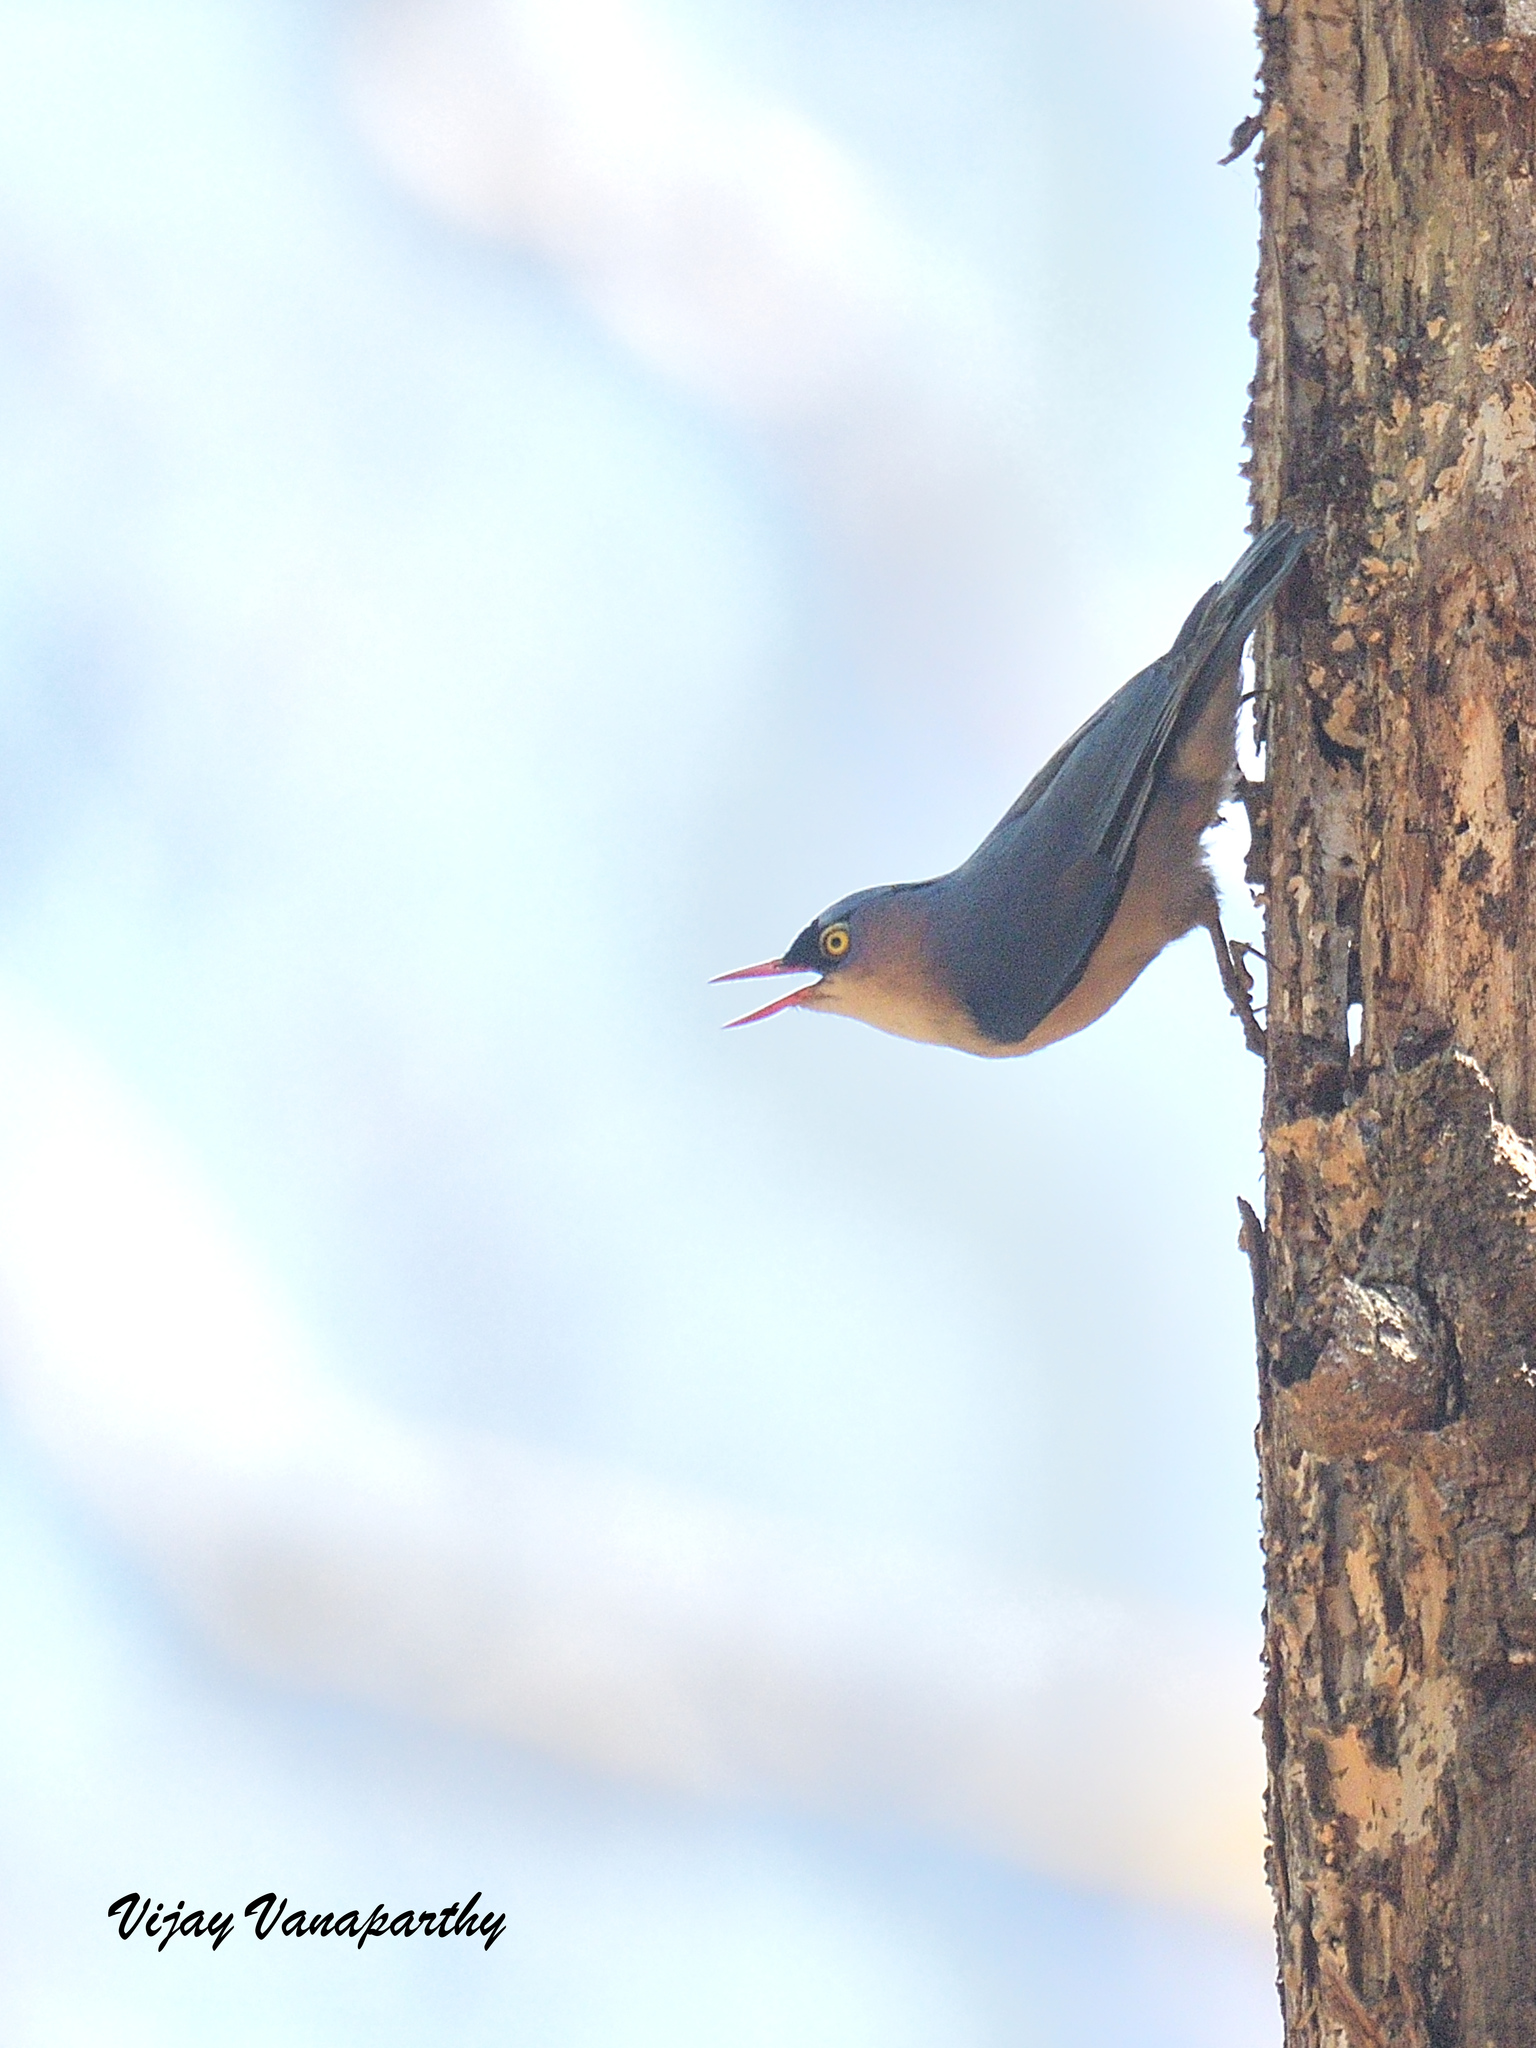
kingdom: Animalia
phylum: Chordata
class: Aves
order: Passeriformes
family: Sittidae
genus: Sitta
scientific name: Sitta frontalis
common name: Velvet-fronted nuthatch
